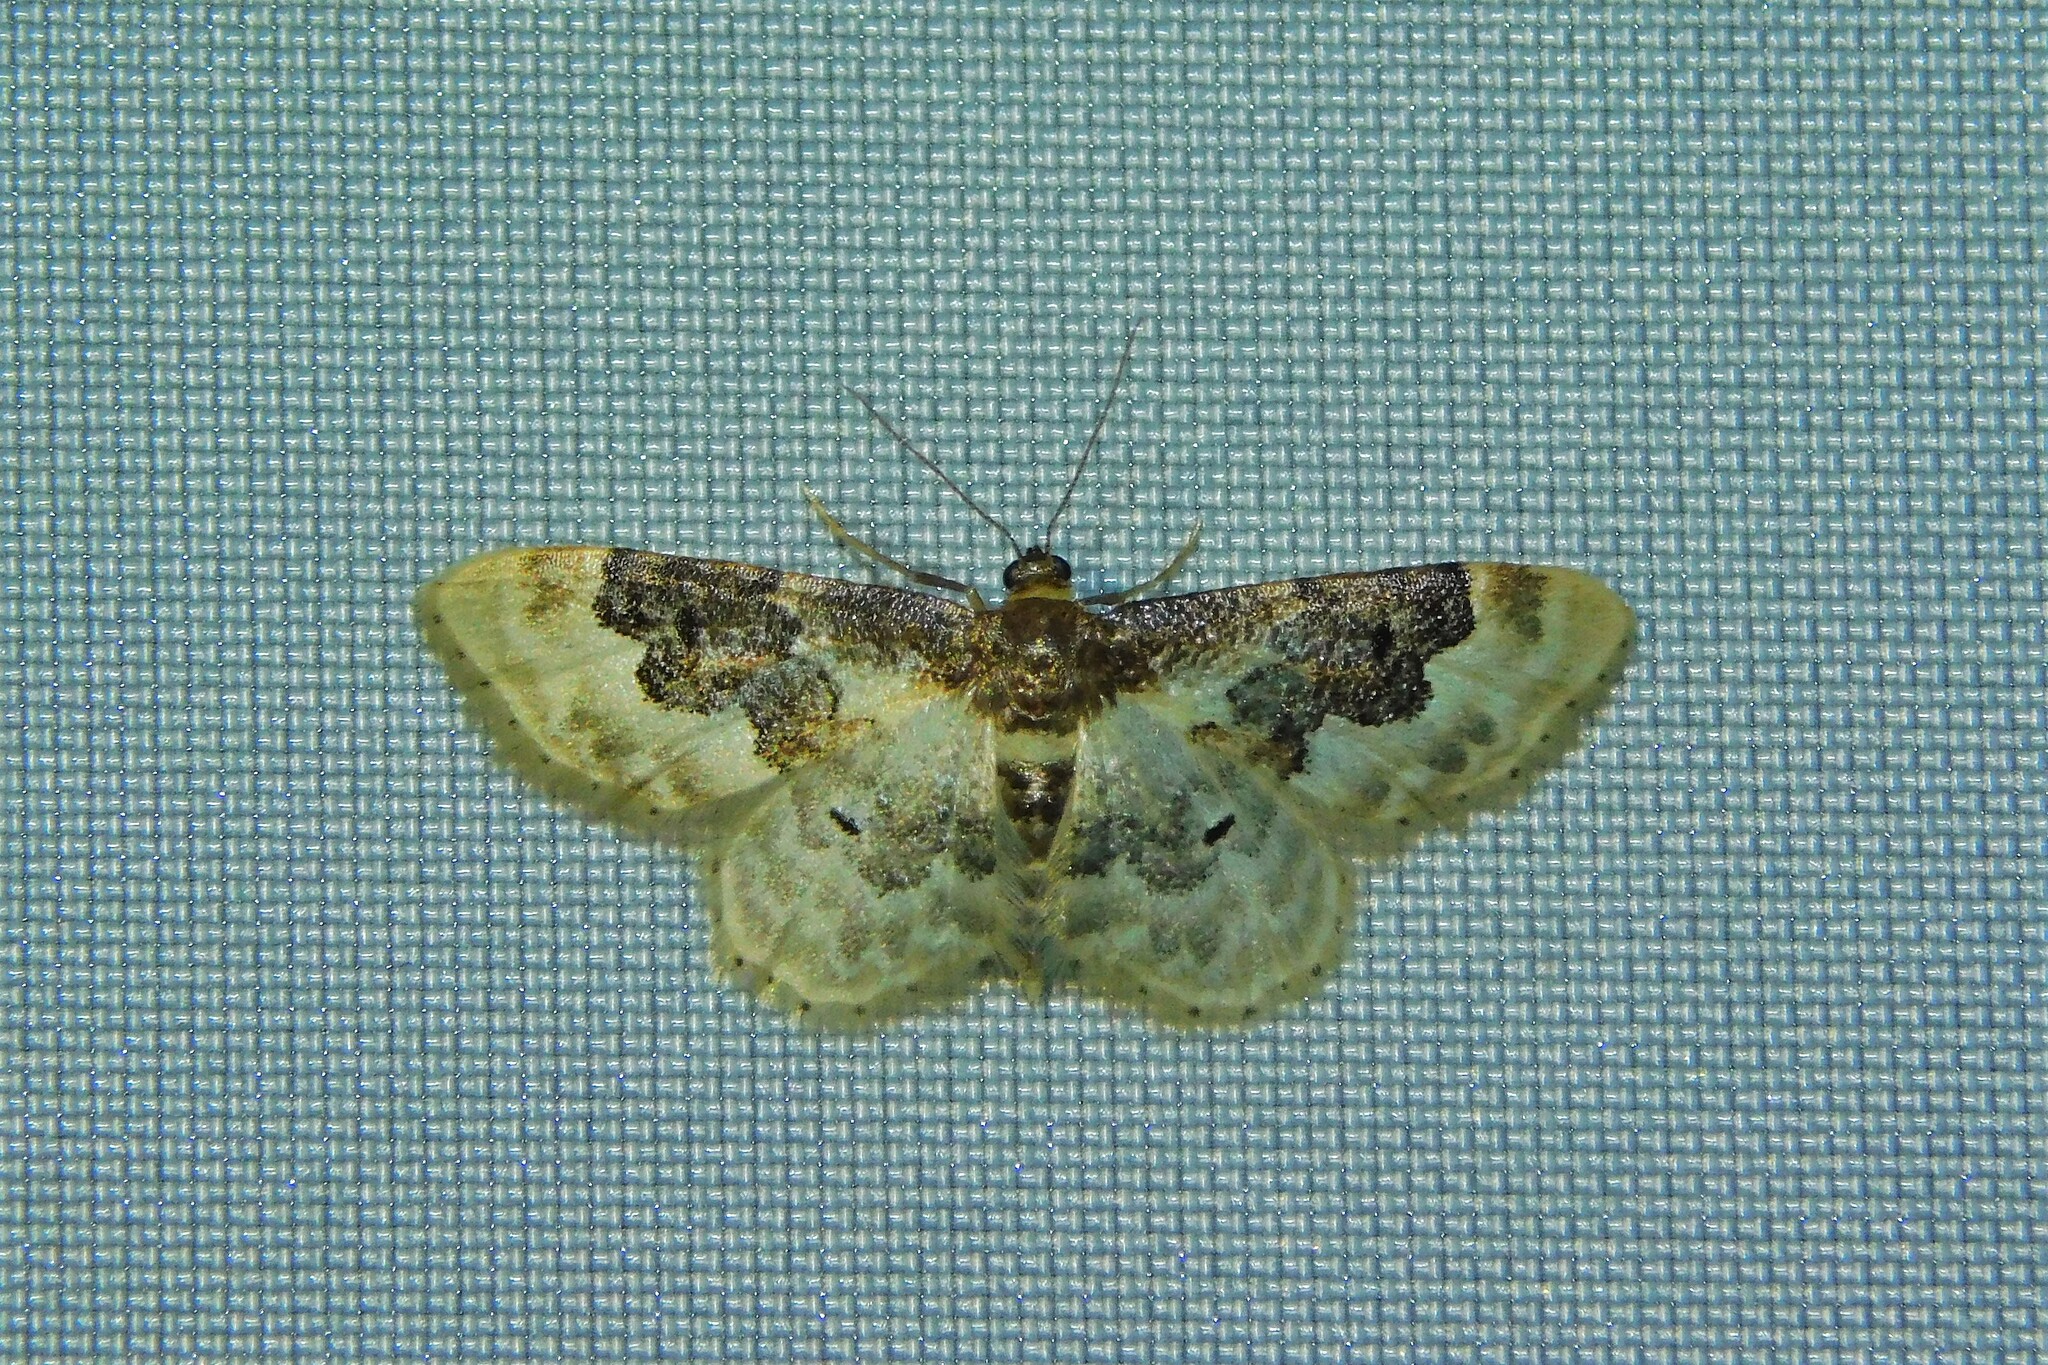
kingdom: Animalia
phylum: Arthropoda
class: Insecta
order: Lepidoptera
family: Geometridae
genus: Idaea
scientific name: Idaea rusticata
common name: Least carpet
